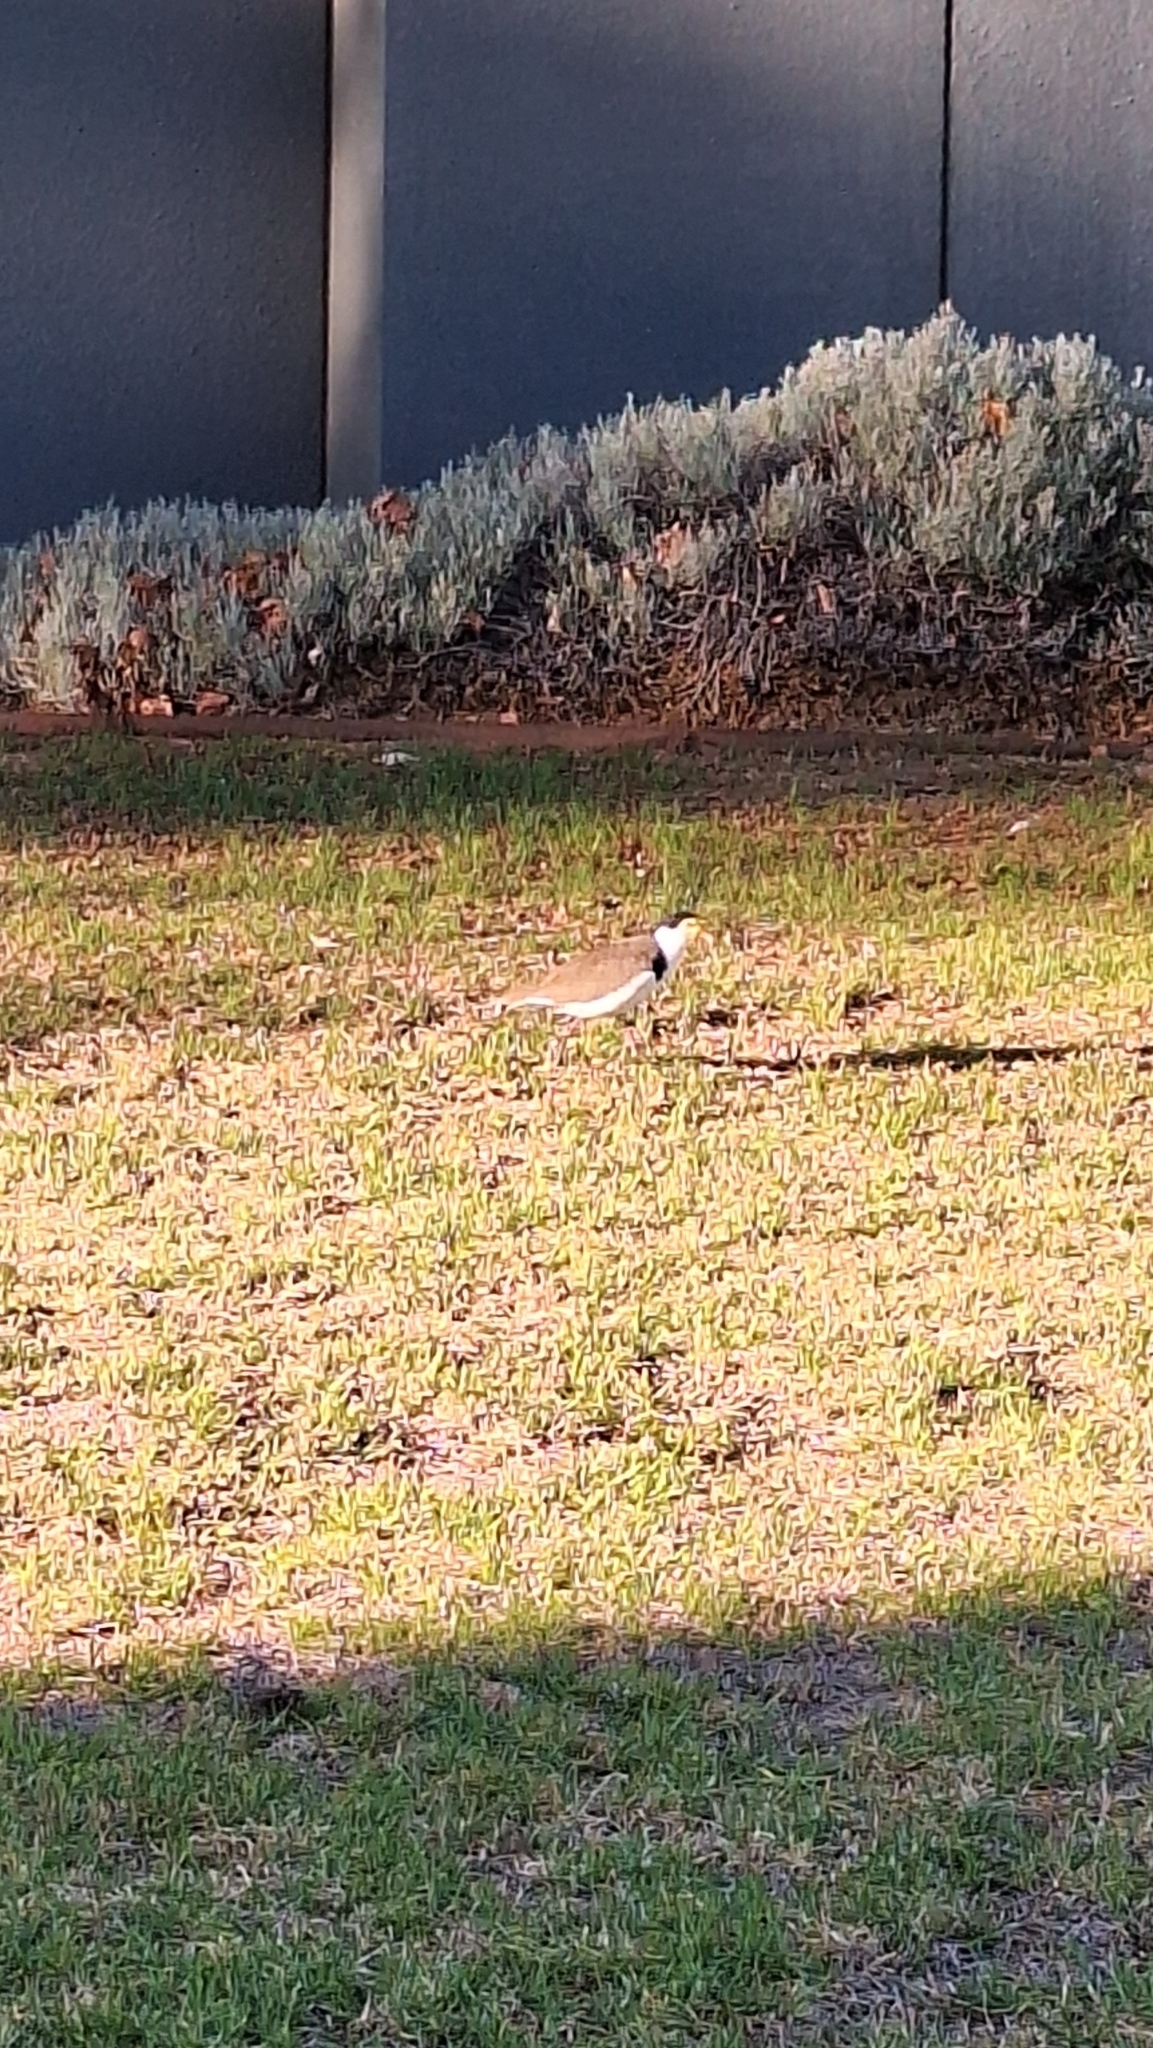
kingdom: Animalia
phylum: Chordata
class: Aves
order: Charadriiformes
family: Charadriidae
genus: Vanellus
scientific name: Vanellus miles
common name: Masked lapwing
